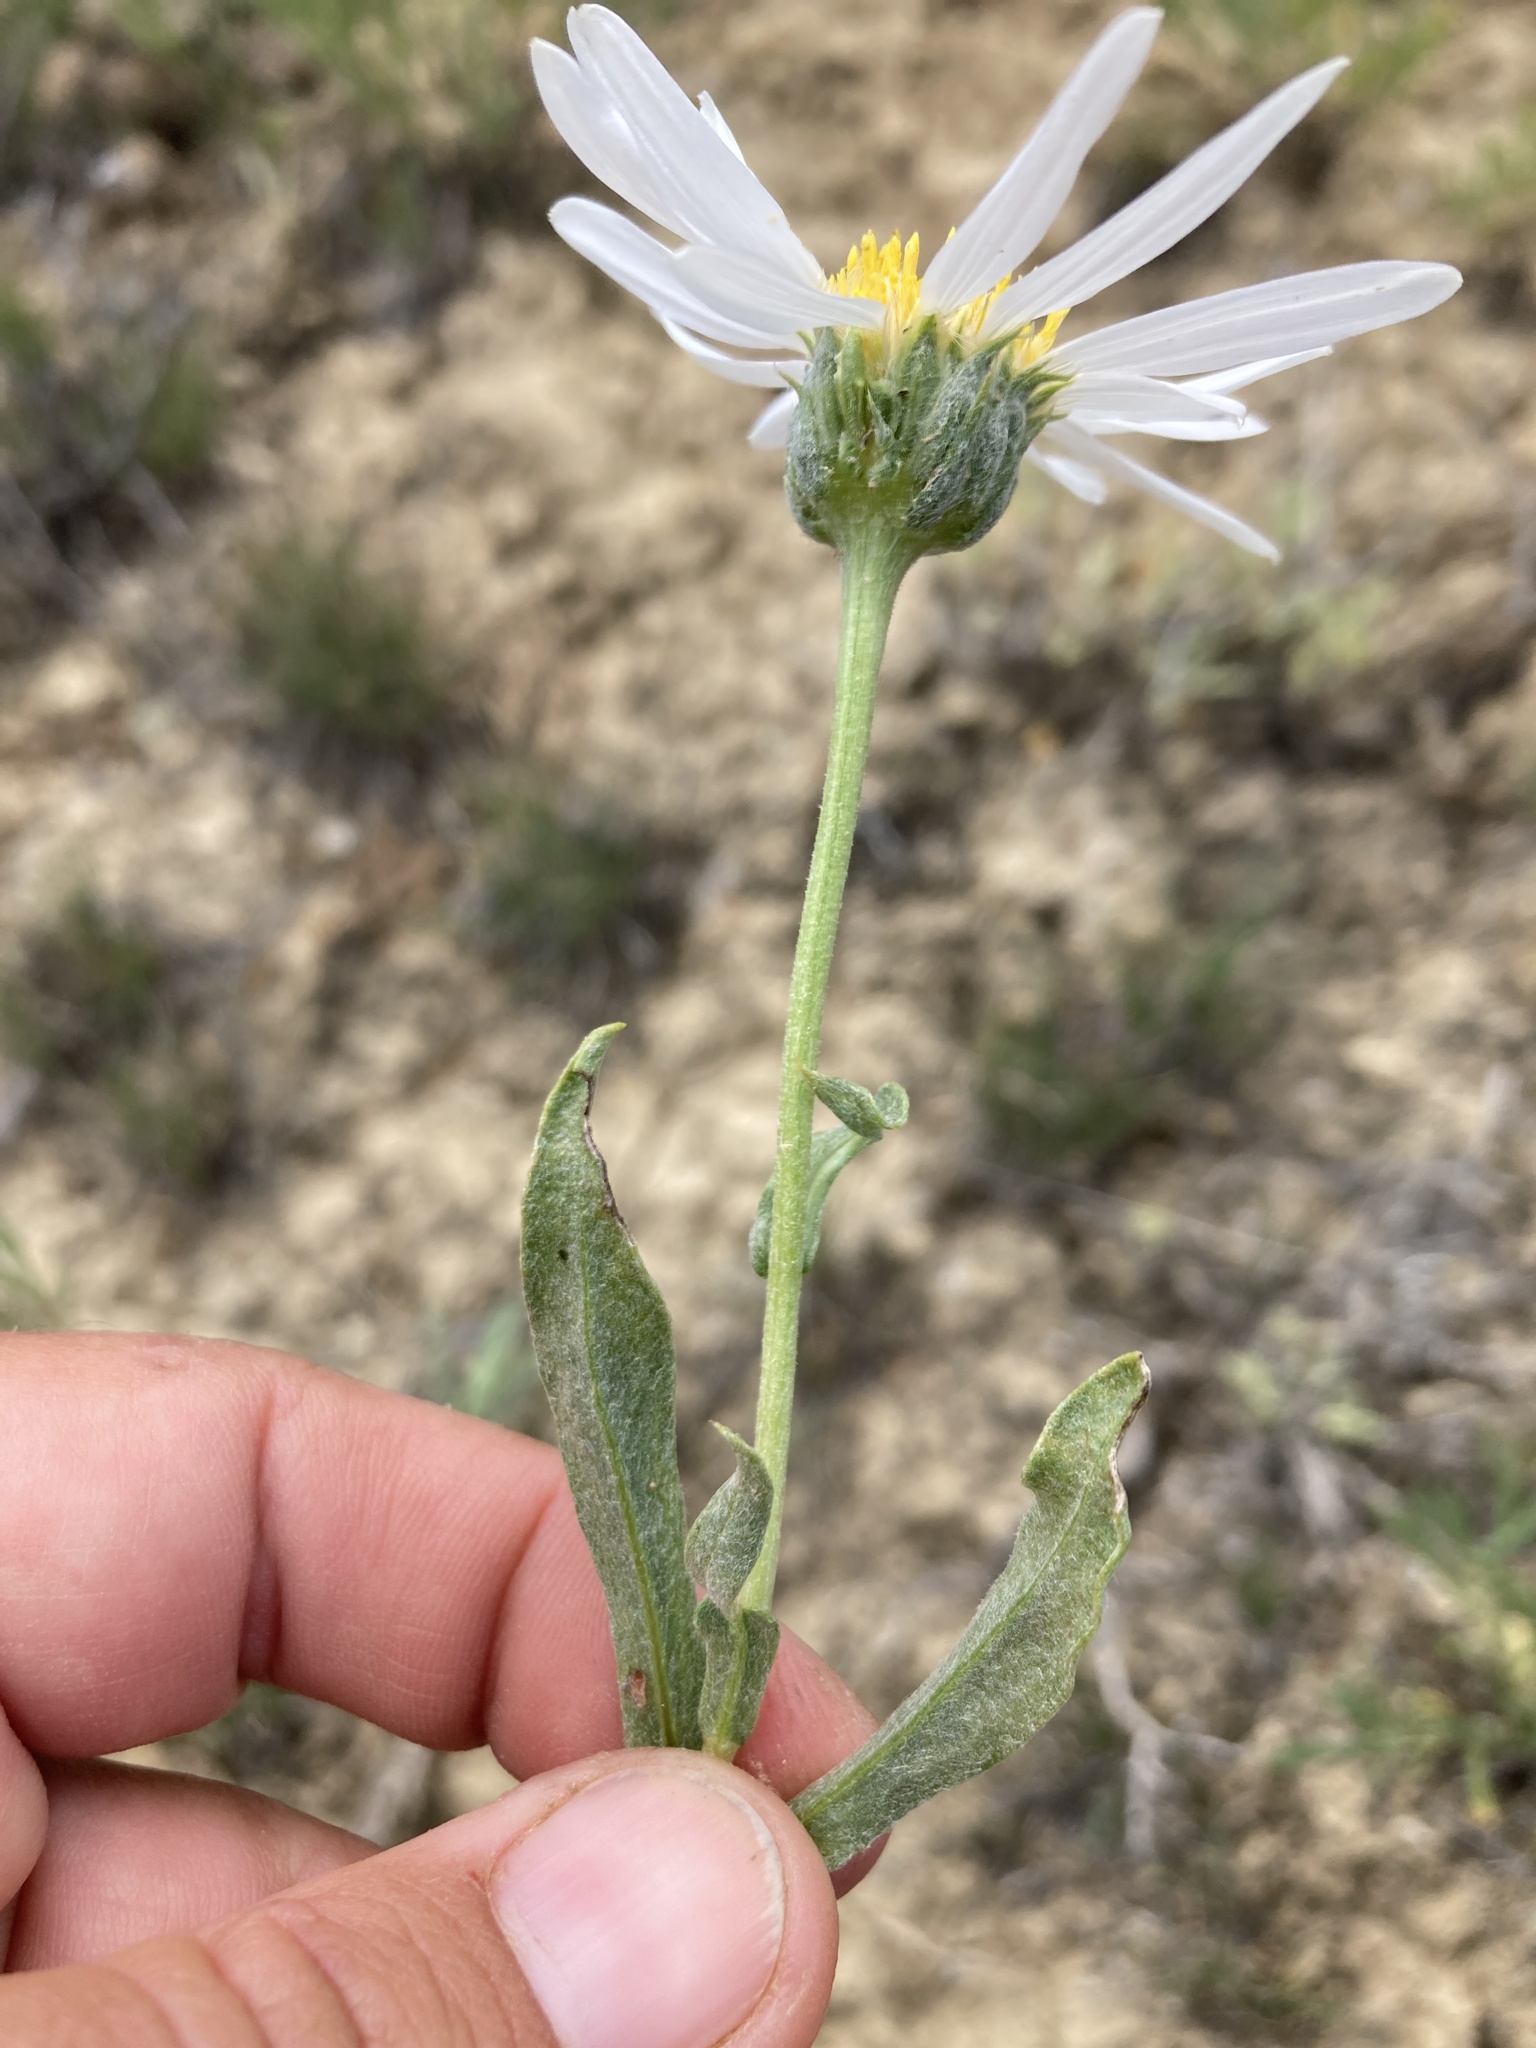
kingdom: Plantae
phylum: Tracheophyta
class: Magnoliopsida
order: Asterales
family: Asteraceae
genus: Xylorhiza
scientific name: Xylorhiza glabriuscula
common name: Smooth woody-aster
